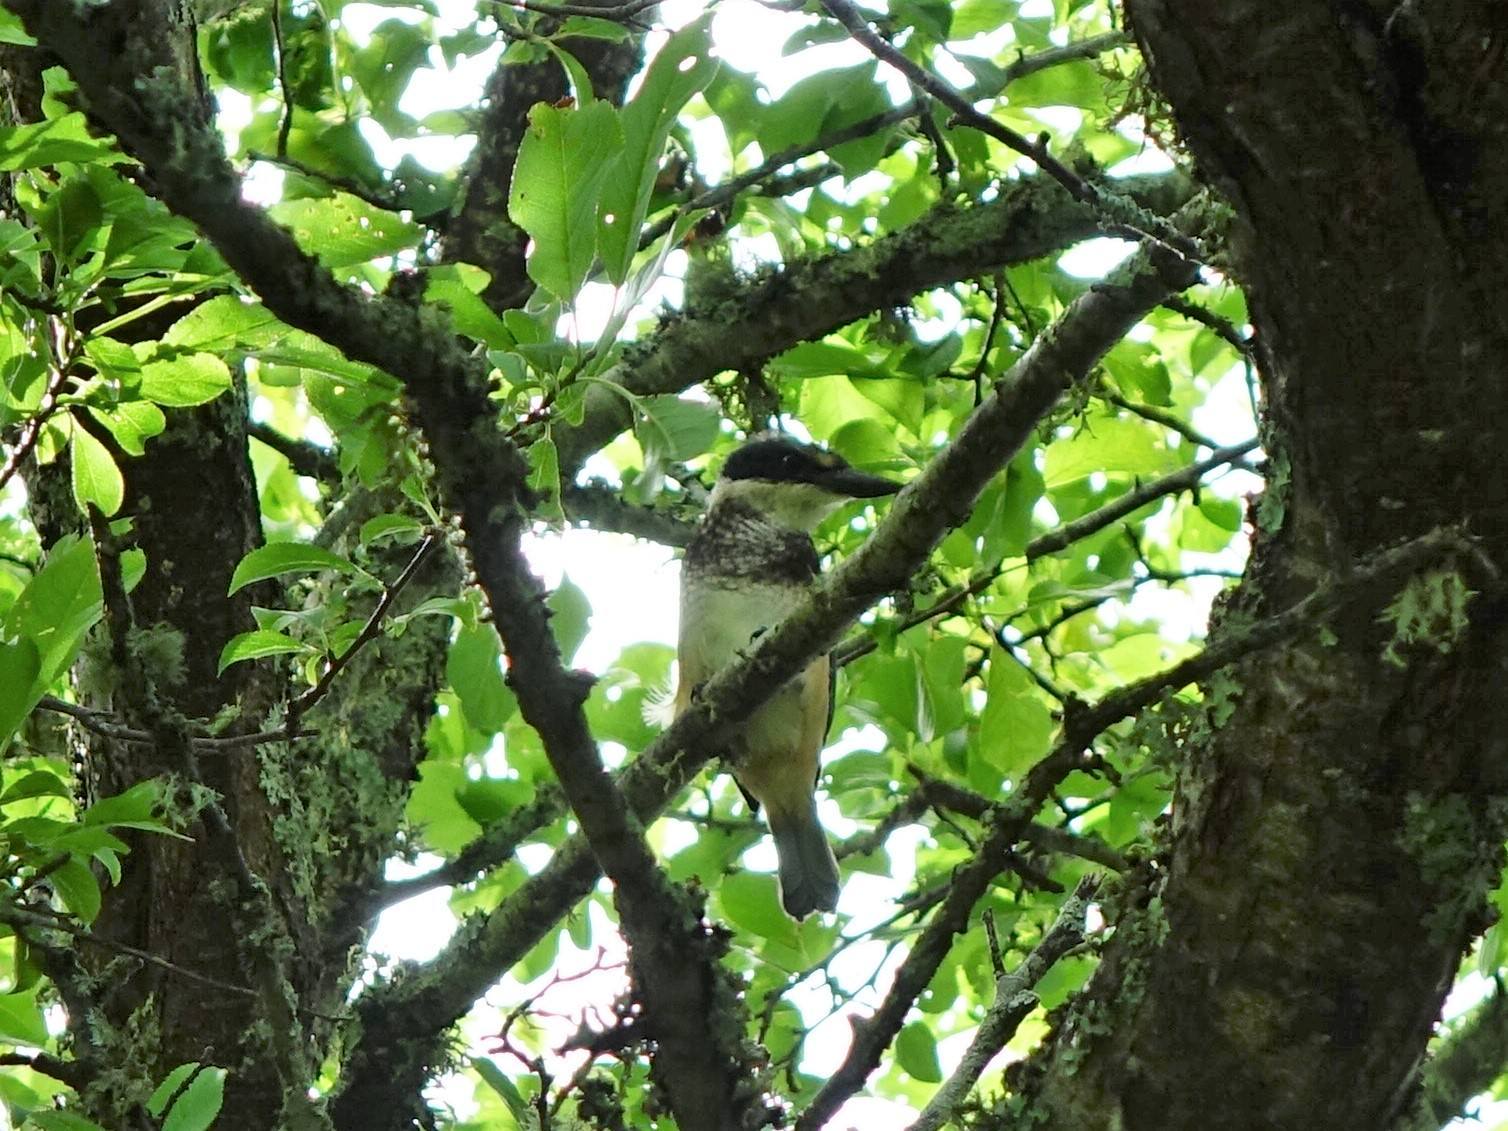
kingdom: Animalia
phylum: Chordata
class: Aves
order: Coraciiformes
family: Alcedinidae
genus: Todiramphus
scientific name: Todiramphus sanctus
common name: Sacred kingfisher
